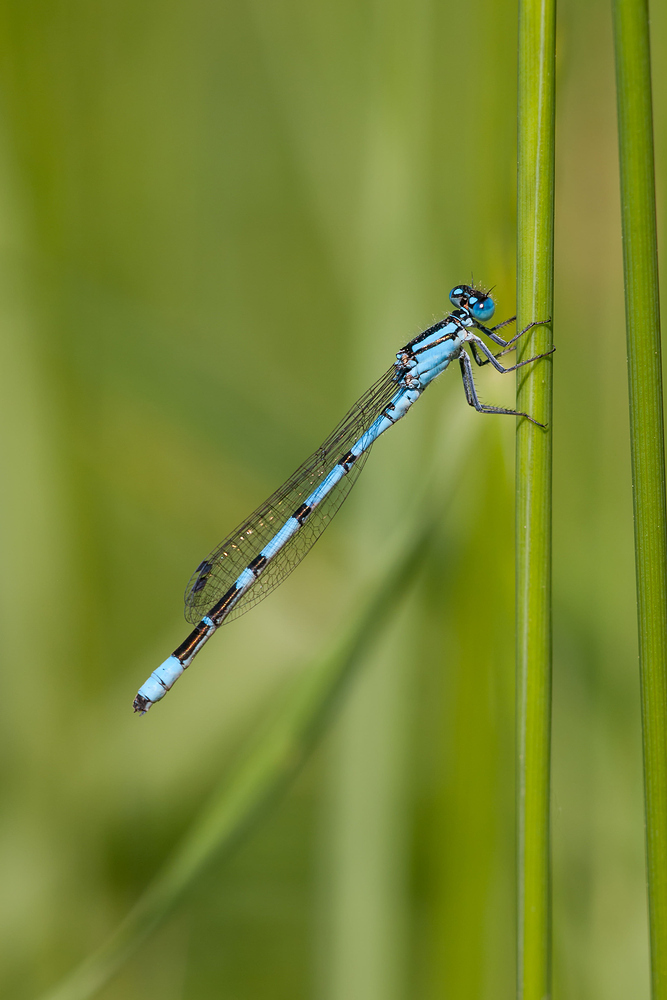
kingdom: Animalia
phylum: Arthropoda
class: Insecta
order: Odonata
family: Coenagrionidae
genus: Enallagma
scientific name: Enallagma cyathigerum
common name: Common blue damselfly
